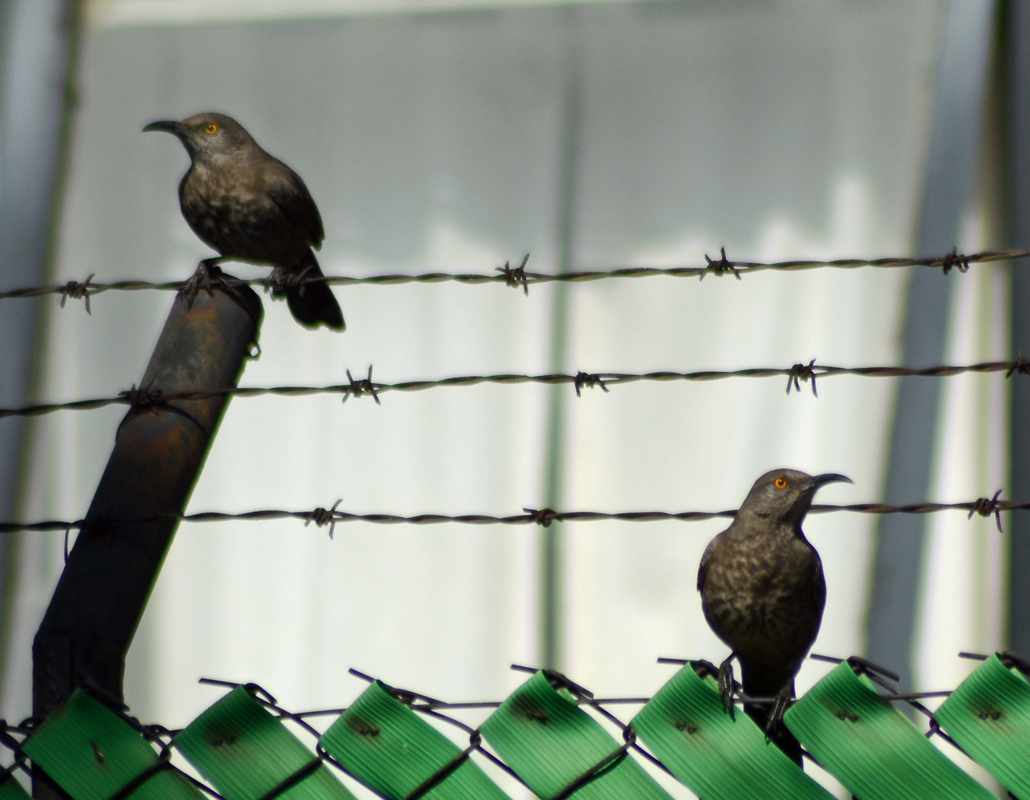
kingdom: Animalia
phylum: Chordata
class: Aves
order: Passeriformes
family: Mimidae
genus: Toxostoma
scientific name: Toxostoma curvirostre
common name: Curve-billed thrasher
